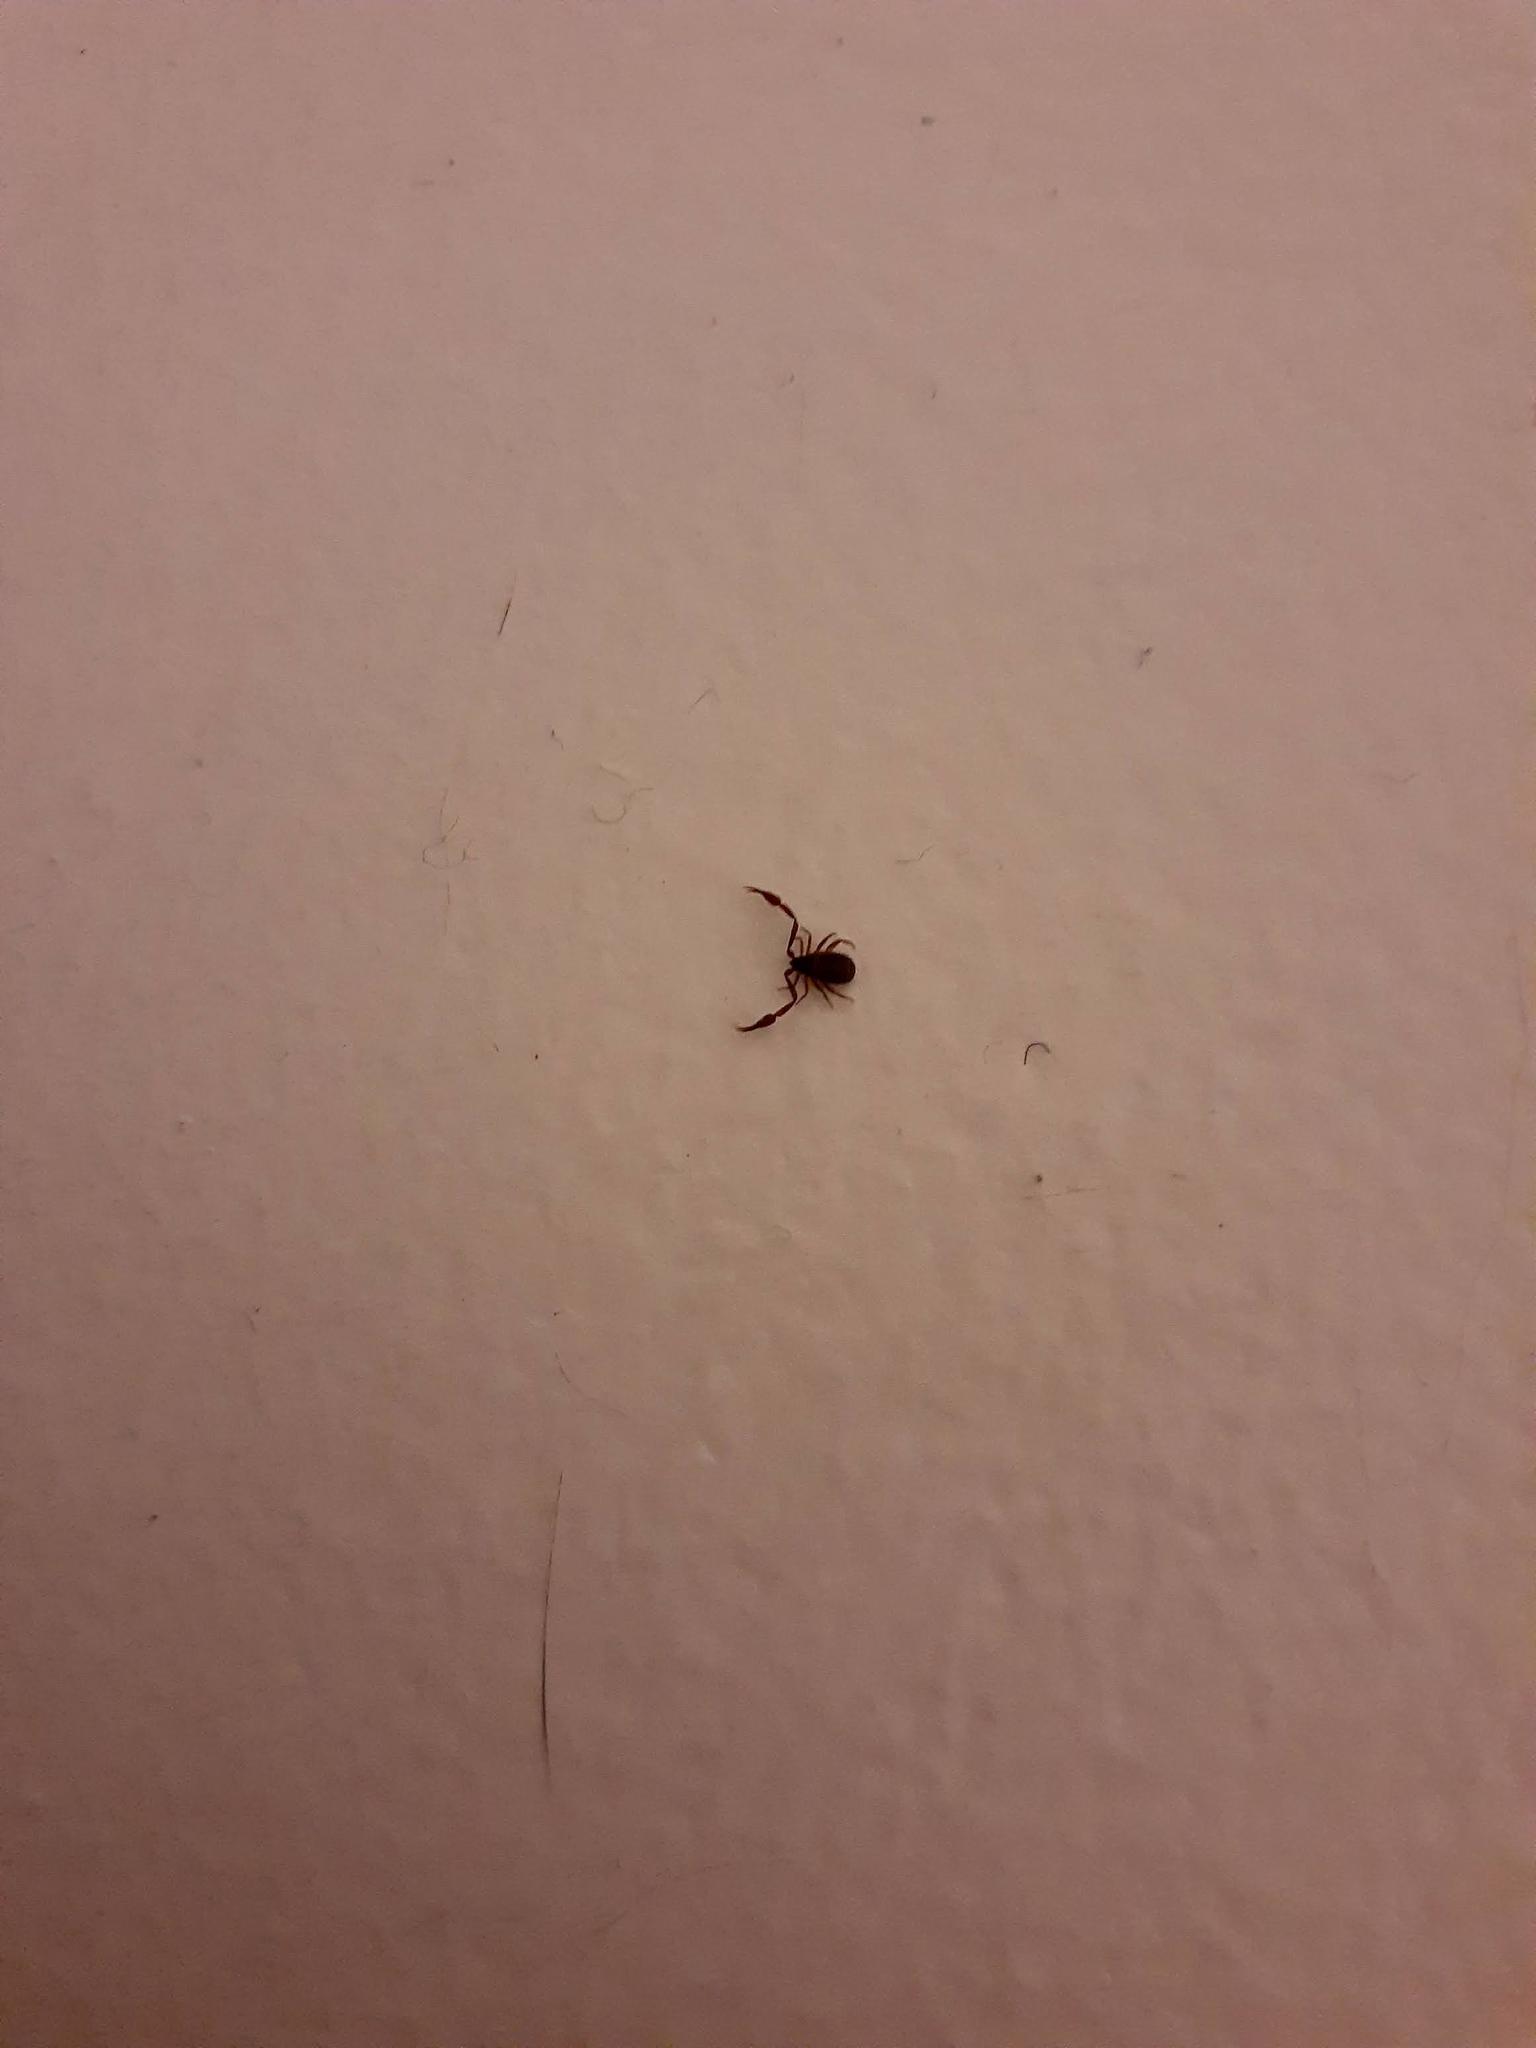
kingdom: Animalia
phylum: Arthropoda
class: Arachnida
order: Pseudoscorpiones
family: Cheliferidae
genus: Chelifer
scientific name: Chelifer cancroides
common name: House false-scorpion
